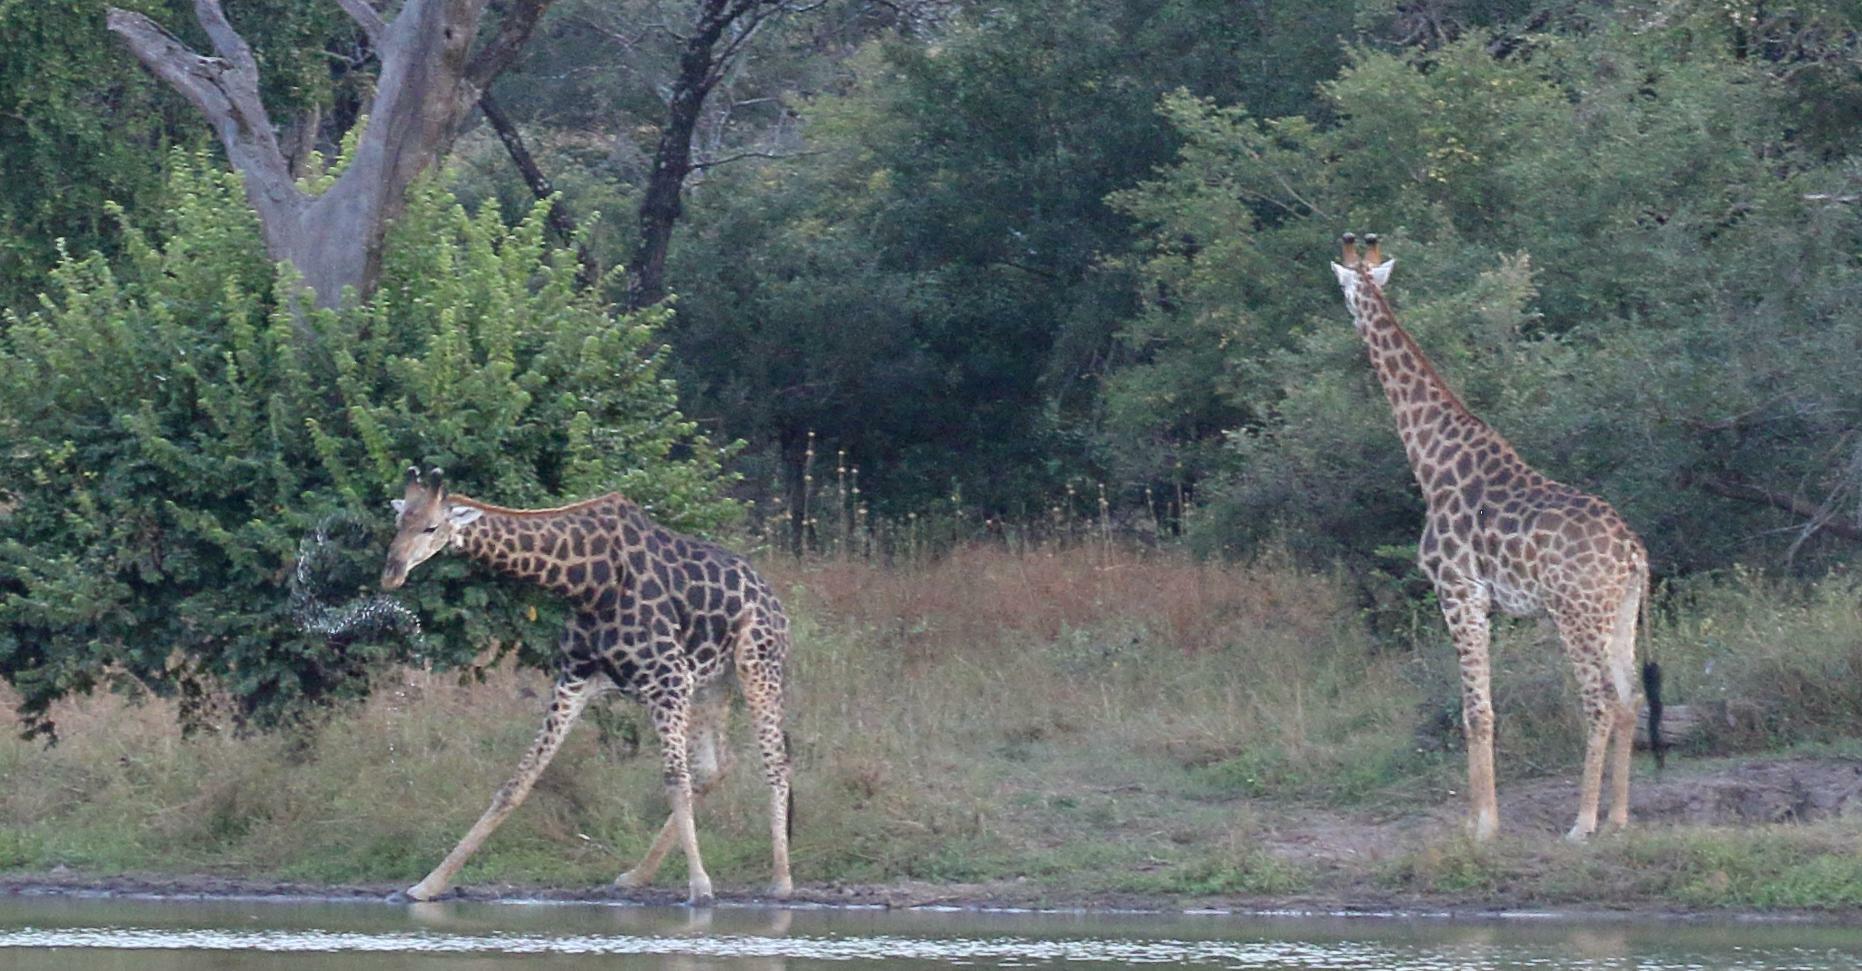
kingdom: Animalia
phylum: Chordata
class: Mammalia
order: Artiodactyla
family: Giraffidae
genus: Giraffa
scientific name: Giraffa giraffa
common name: Southern giraffe
